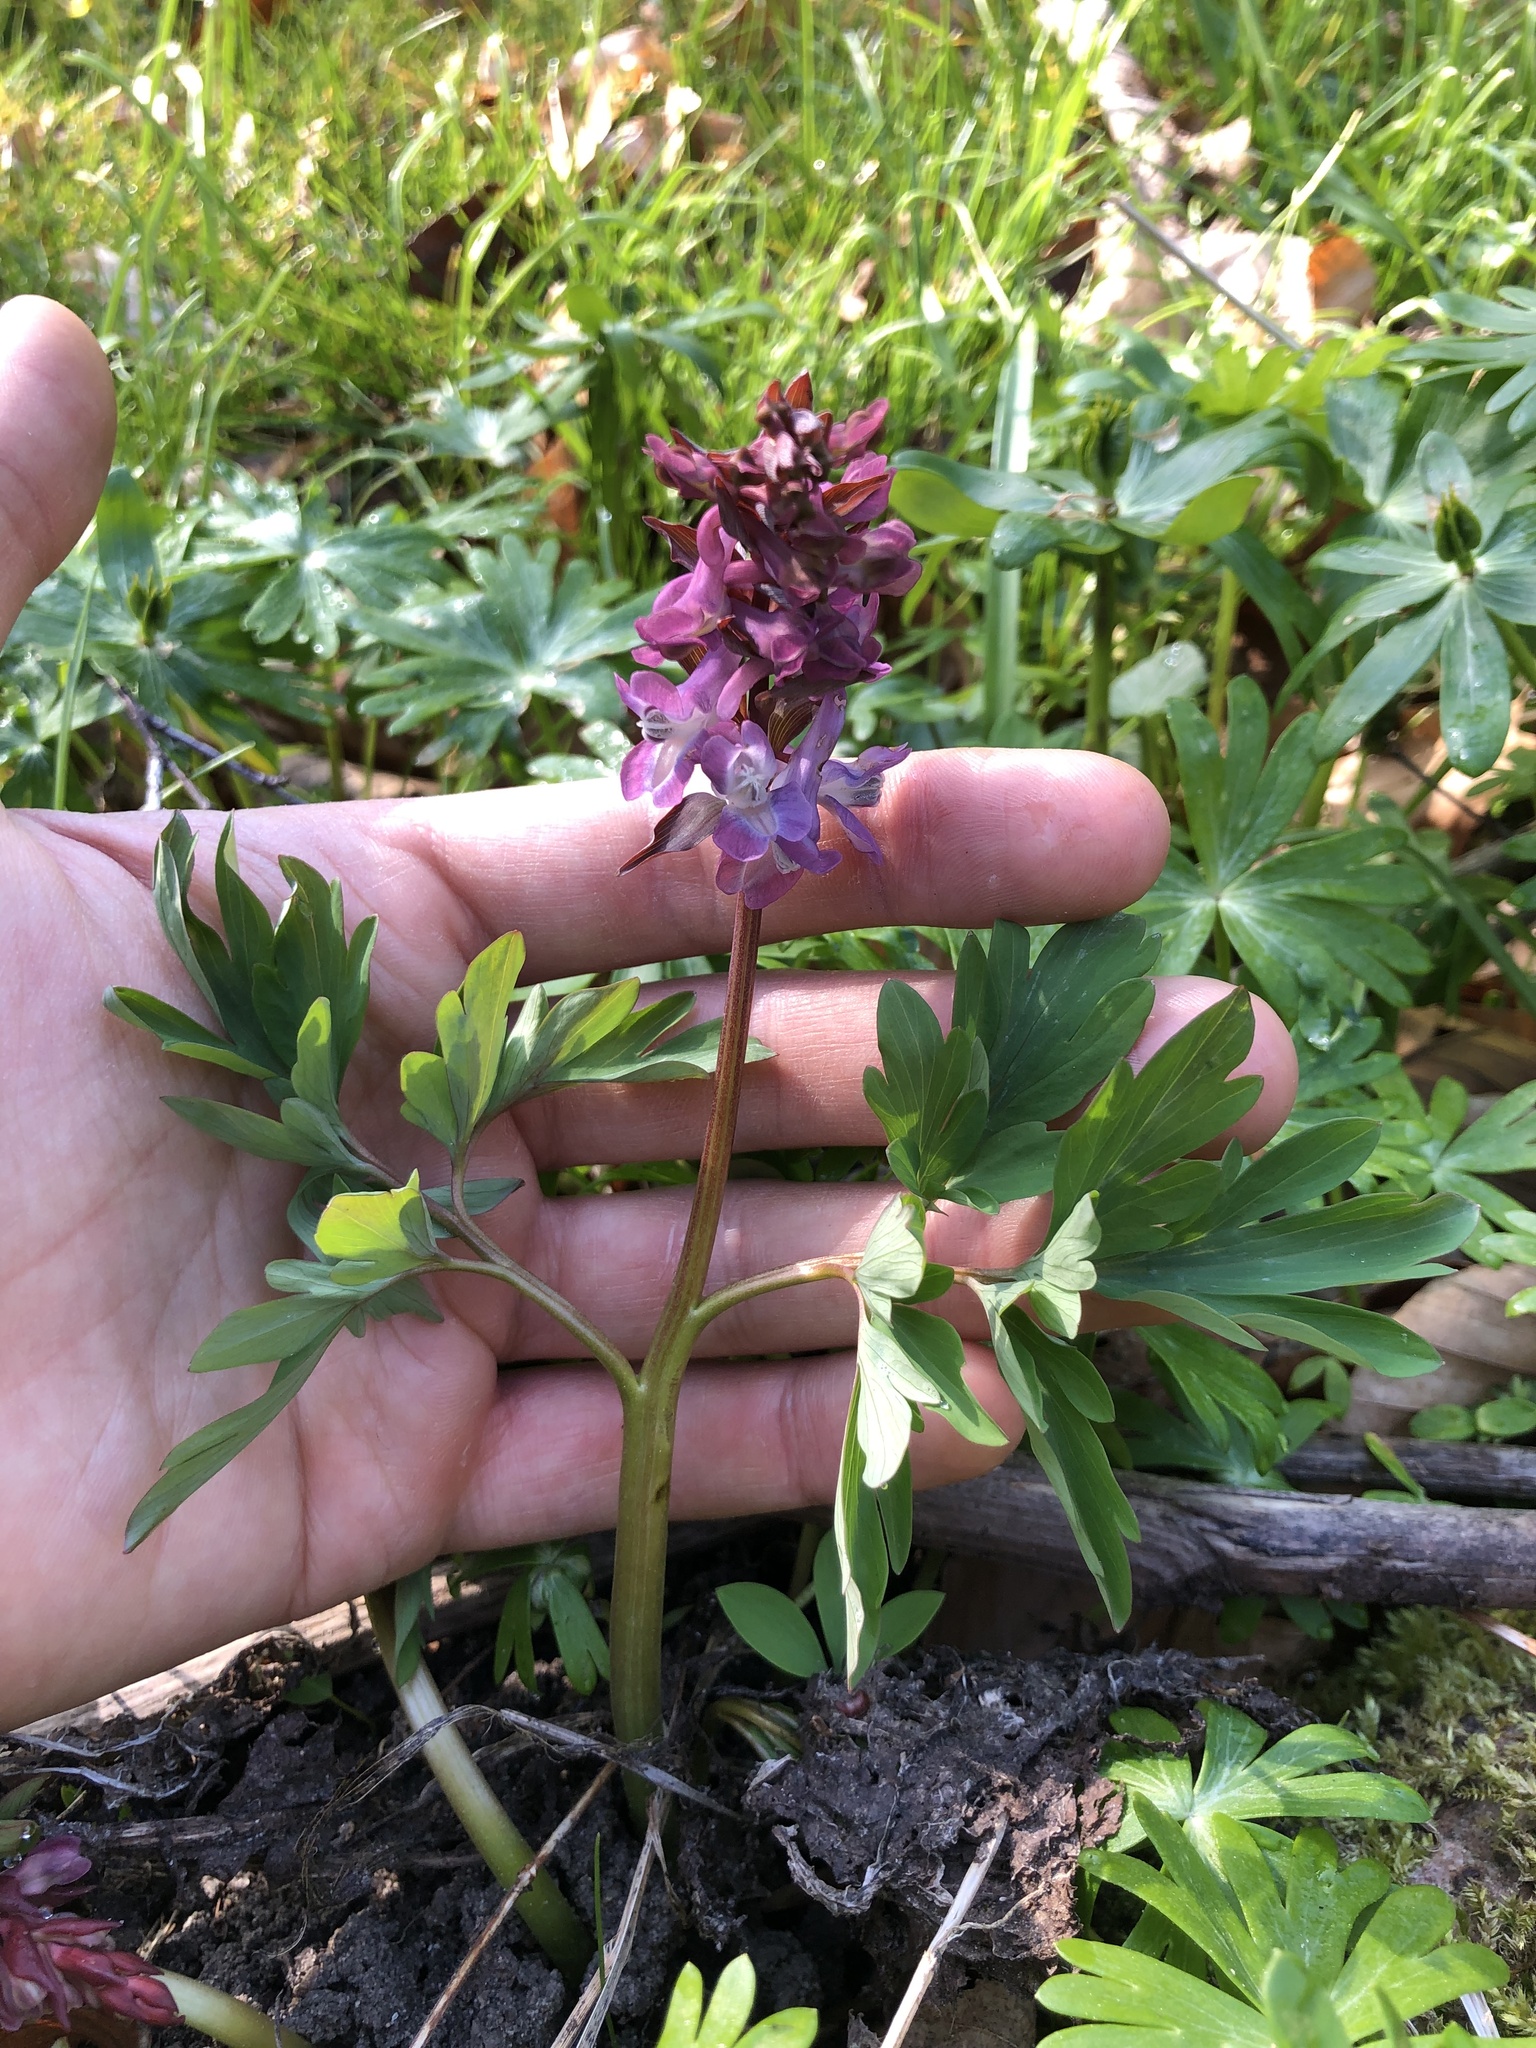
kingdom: Plantae
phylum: Tracheophyta
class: Magnoliopsida
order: Ranunculales
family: Papaveraceae
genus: Corydalis
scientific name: Corydalis cava
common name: Hollowroot
